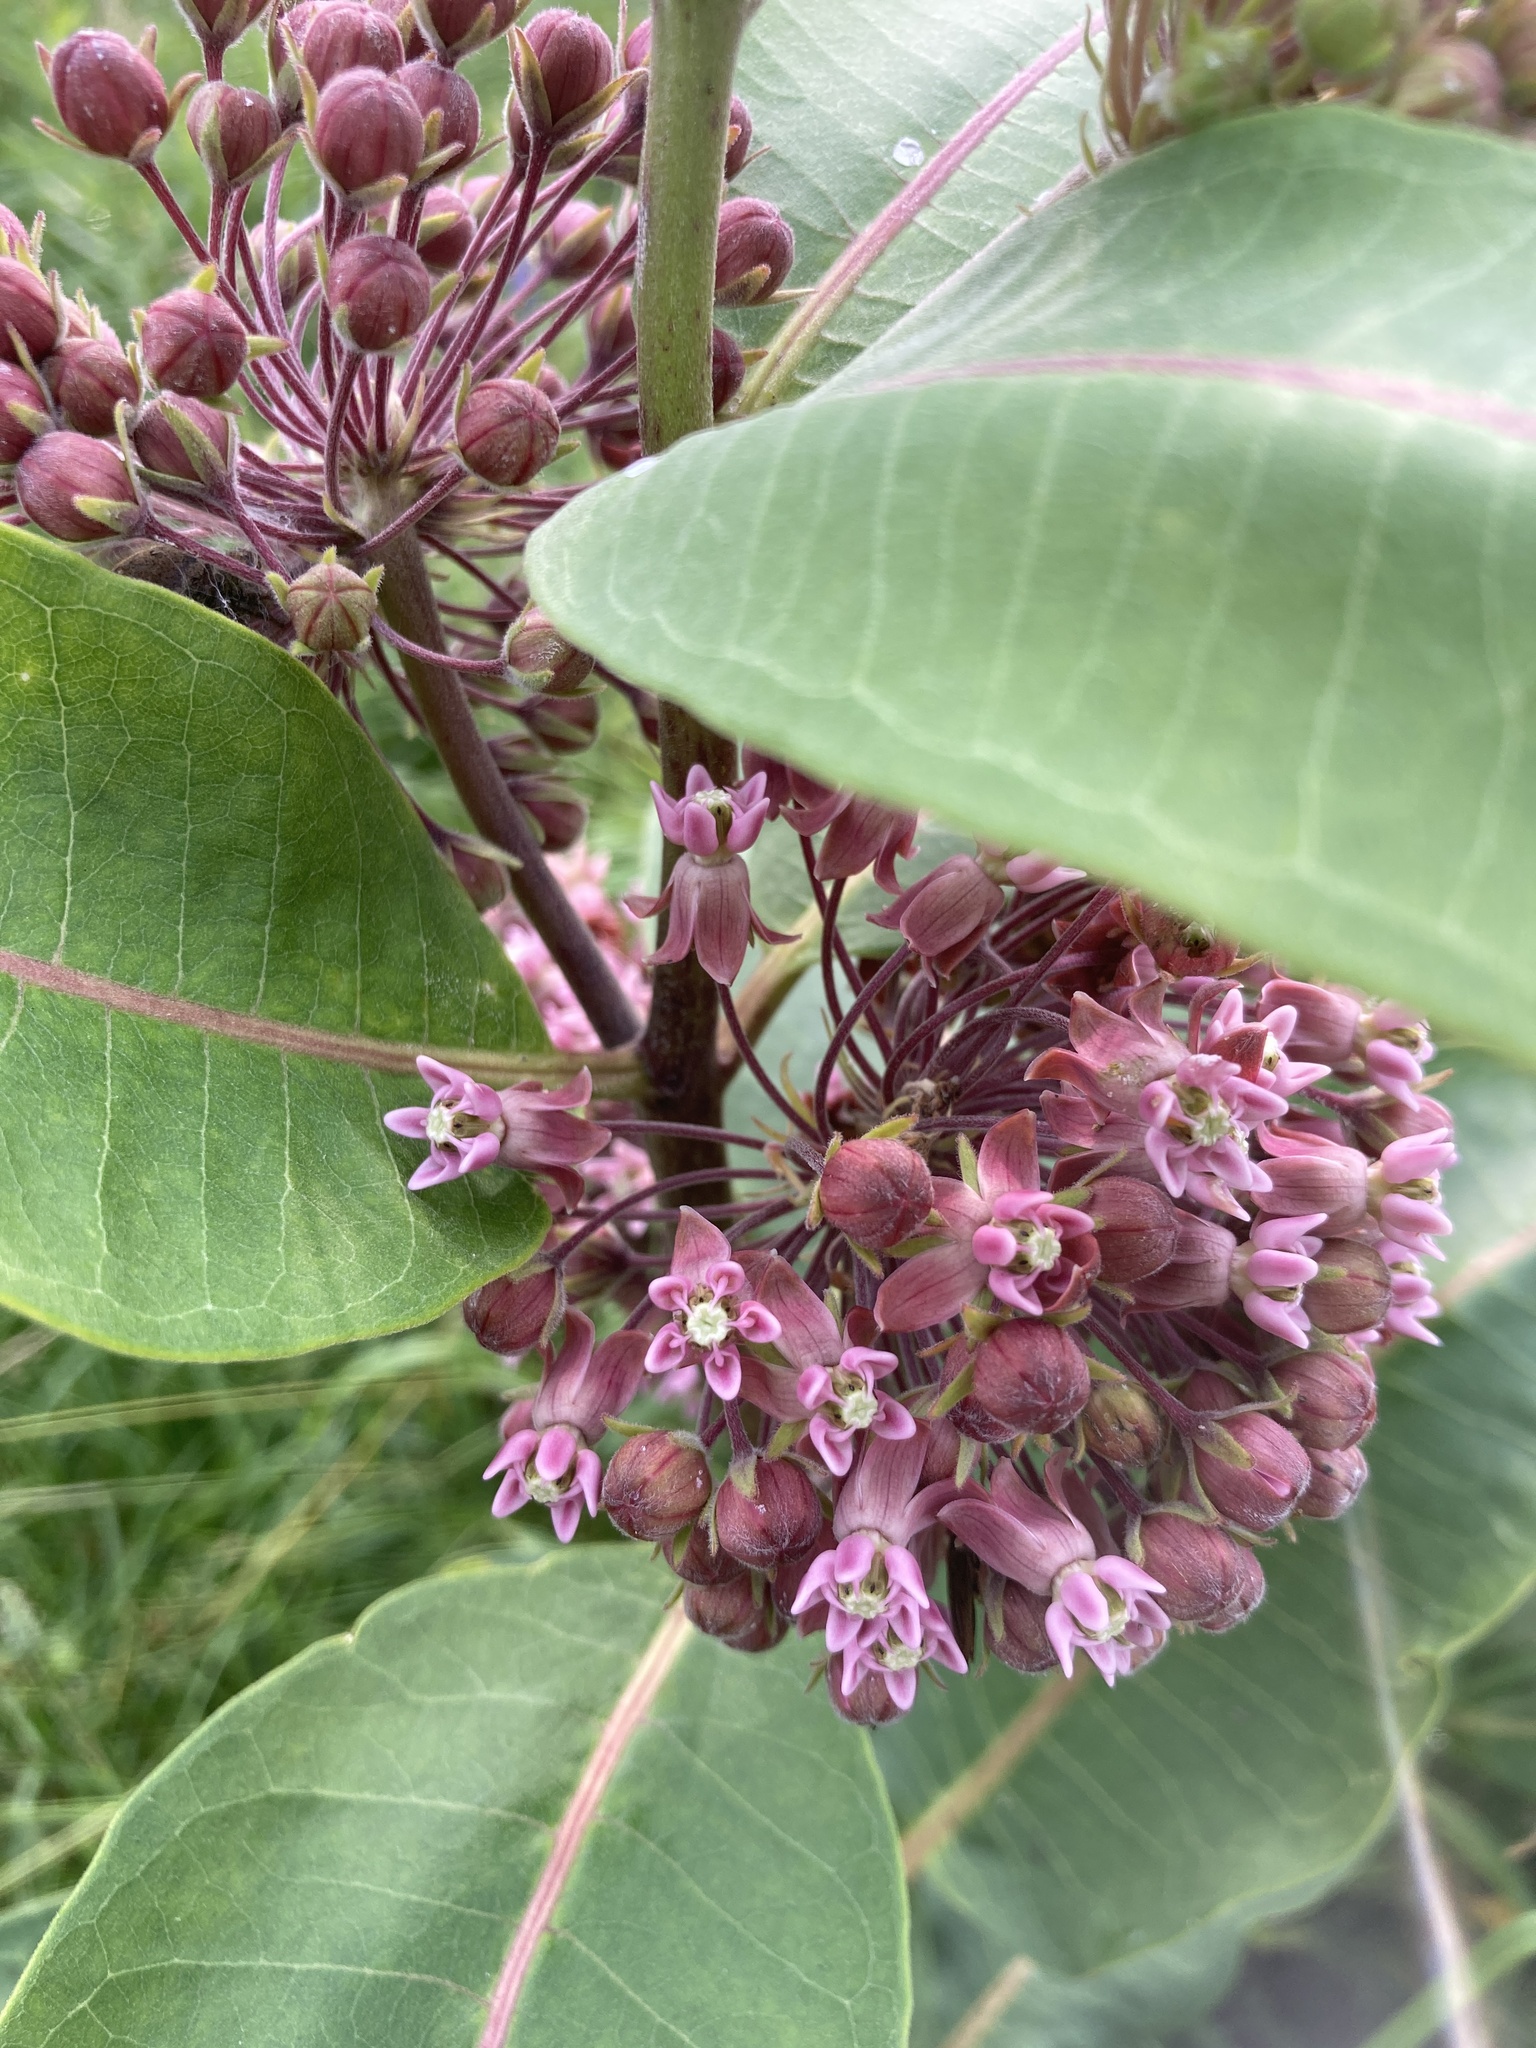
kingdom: Plantae
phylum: Tracheophyta
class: Magnoliopsida
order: Gentianales
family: Apocynaceae
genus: Asclepias
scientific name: Asclepias syriaca
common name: Common milkweed
